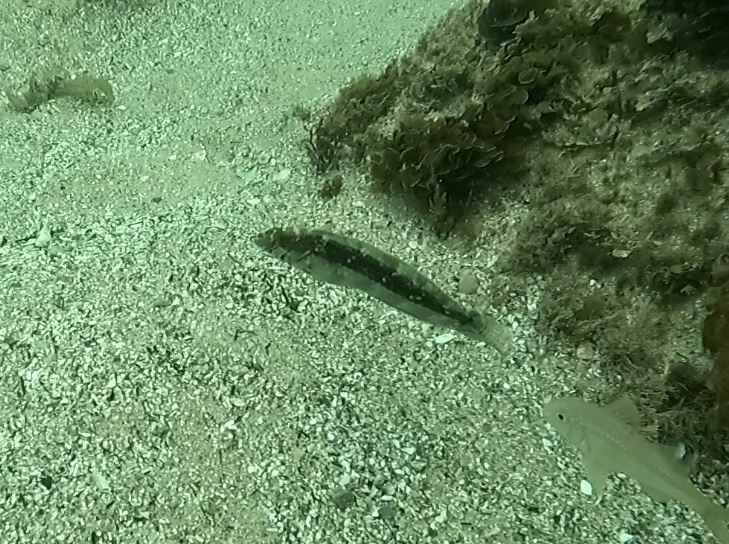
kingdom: Animalia
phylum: Chordata
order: Perciformes
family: Labridae
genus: Eupetrichthys
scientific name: Eupetrichthys angustipes
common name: Snake-skin wrasse
